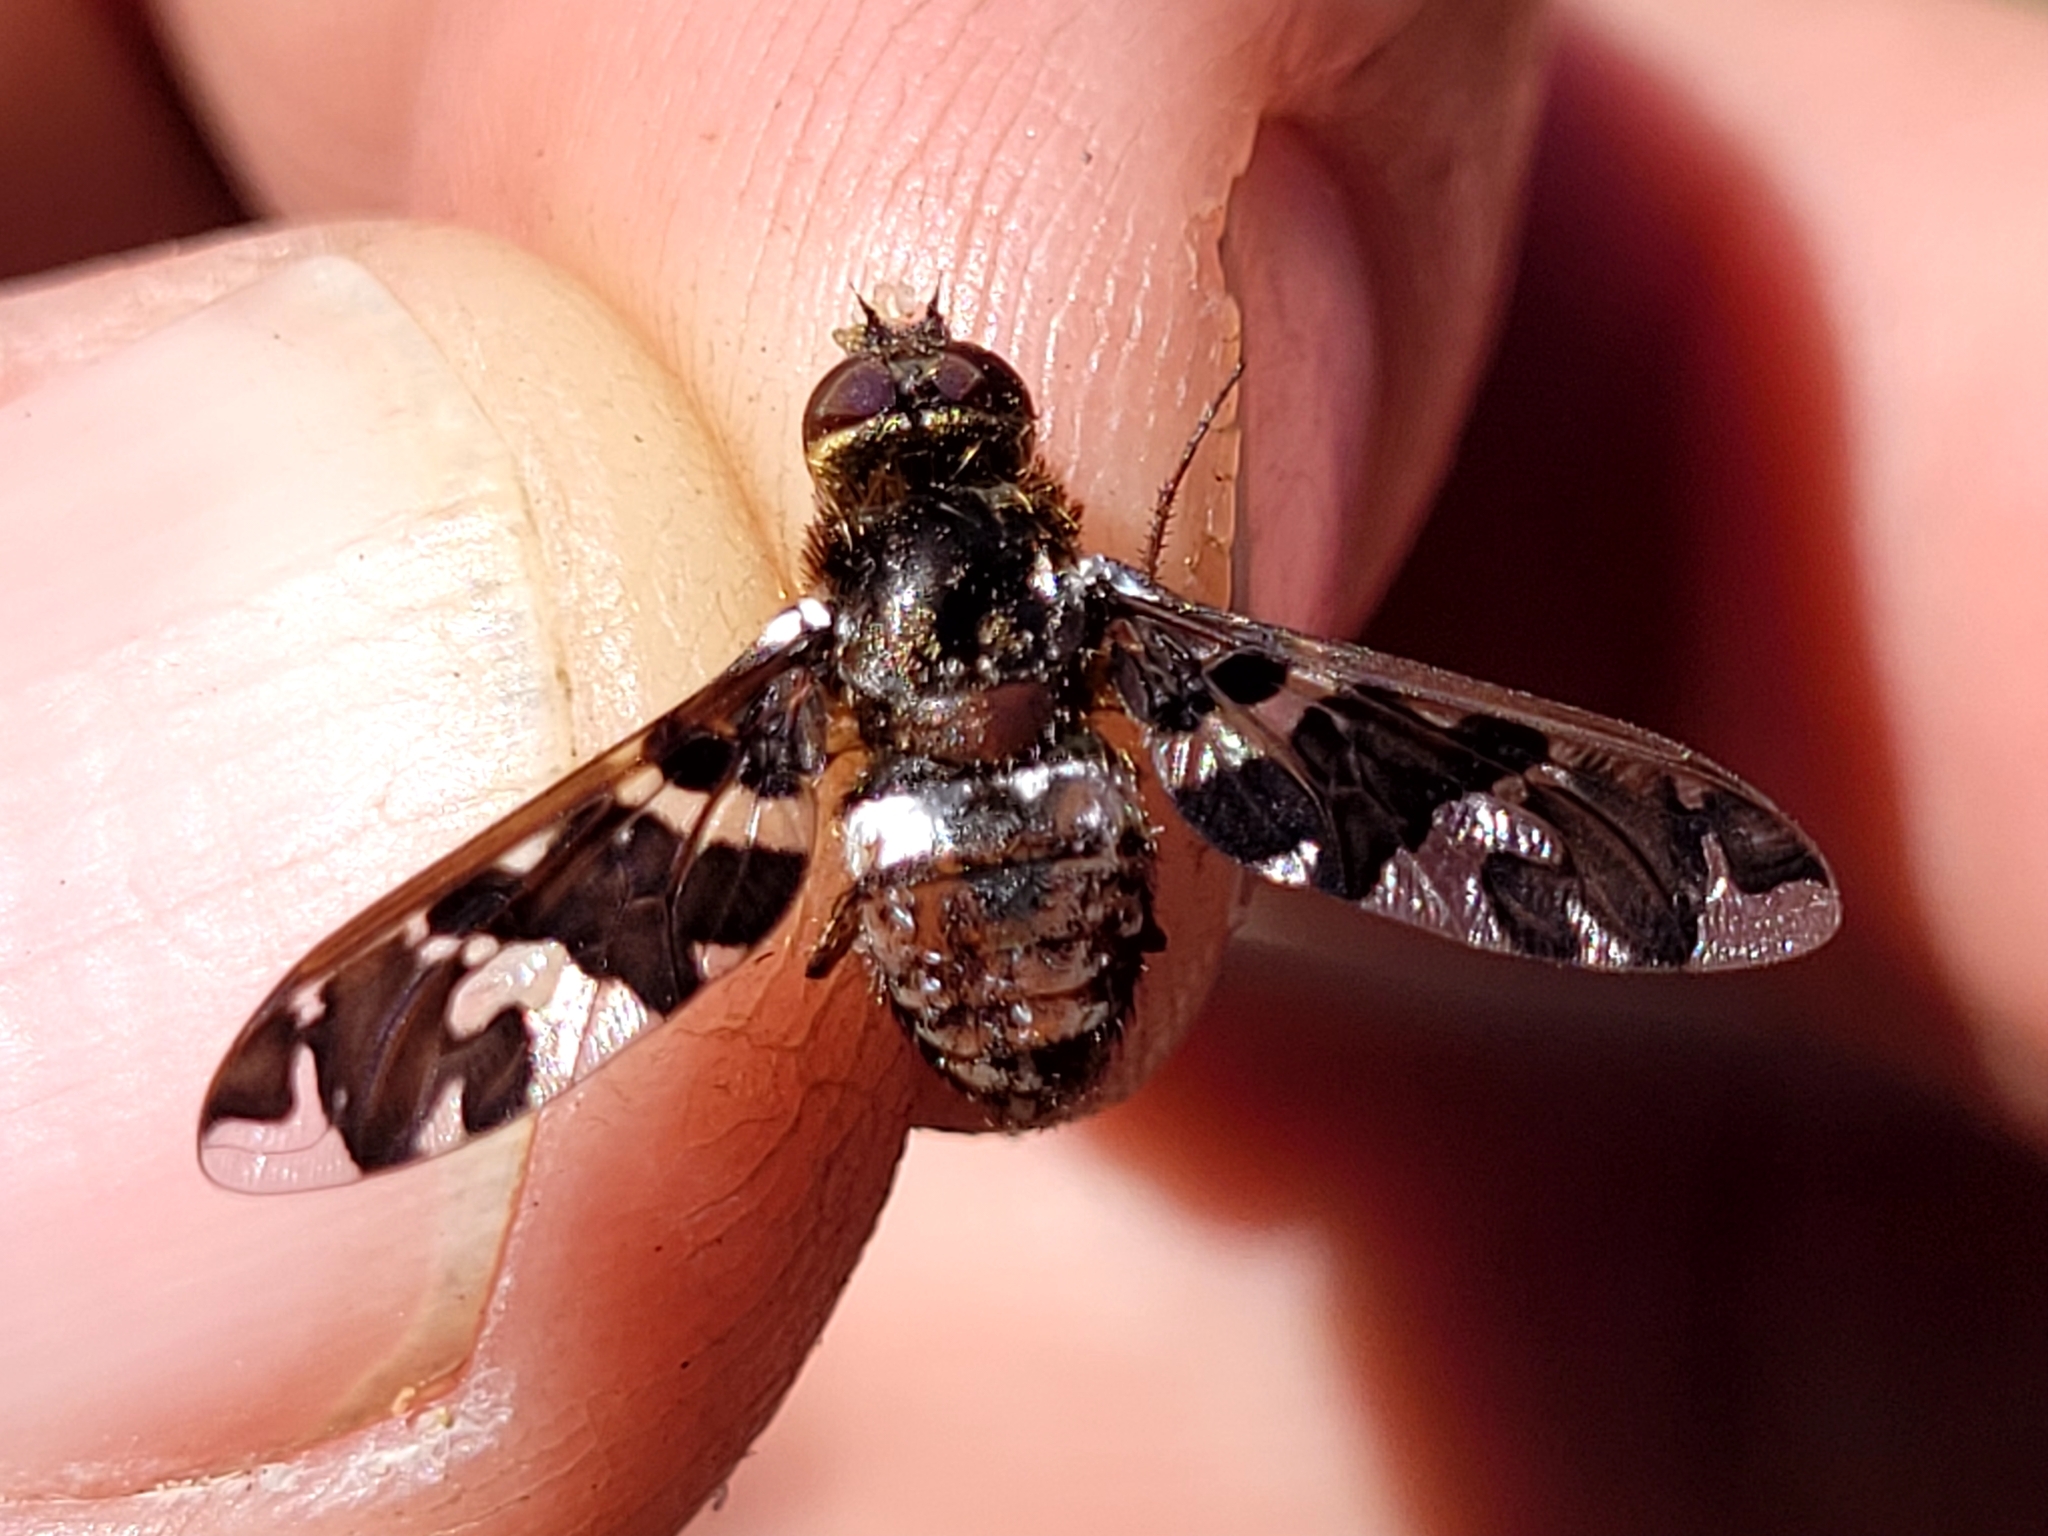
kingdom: Animalia
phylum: Arthropoda
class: Insecta
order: Diptera
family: Bombyliidae
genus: Exoprosopa
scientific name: Exoprosopa caliptera
